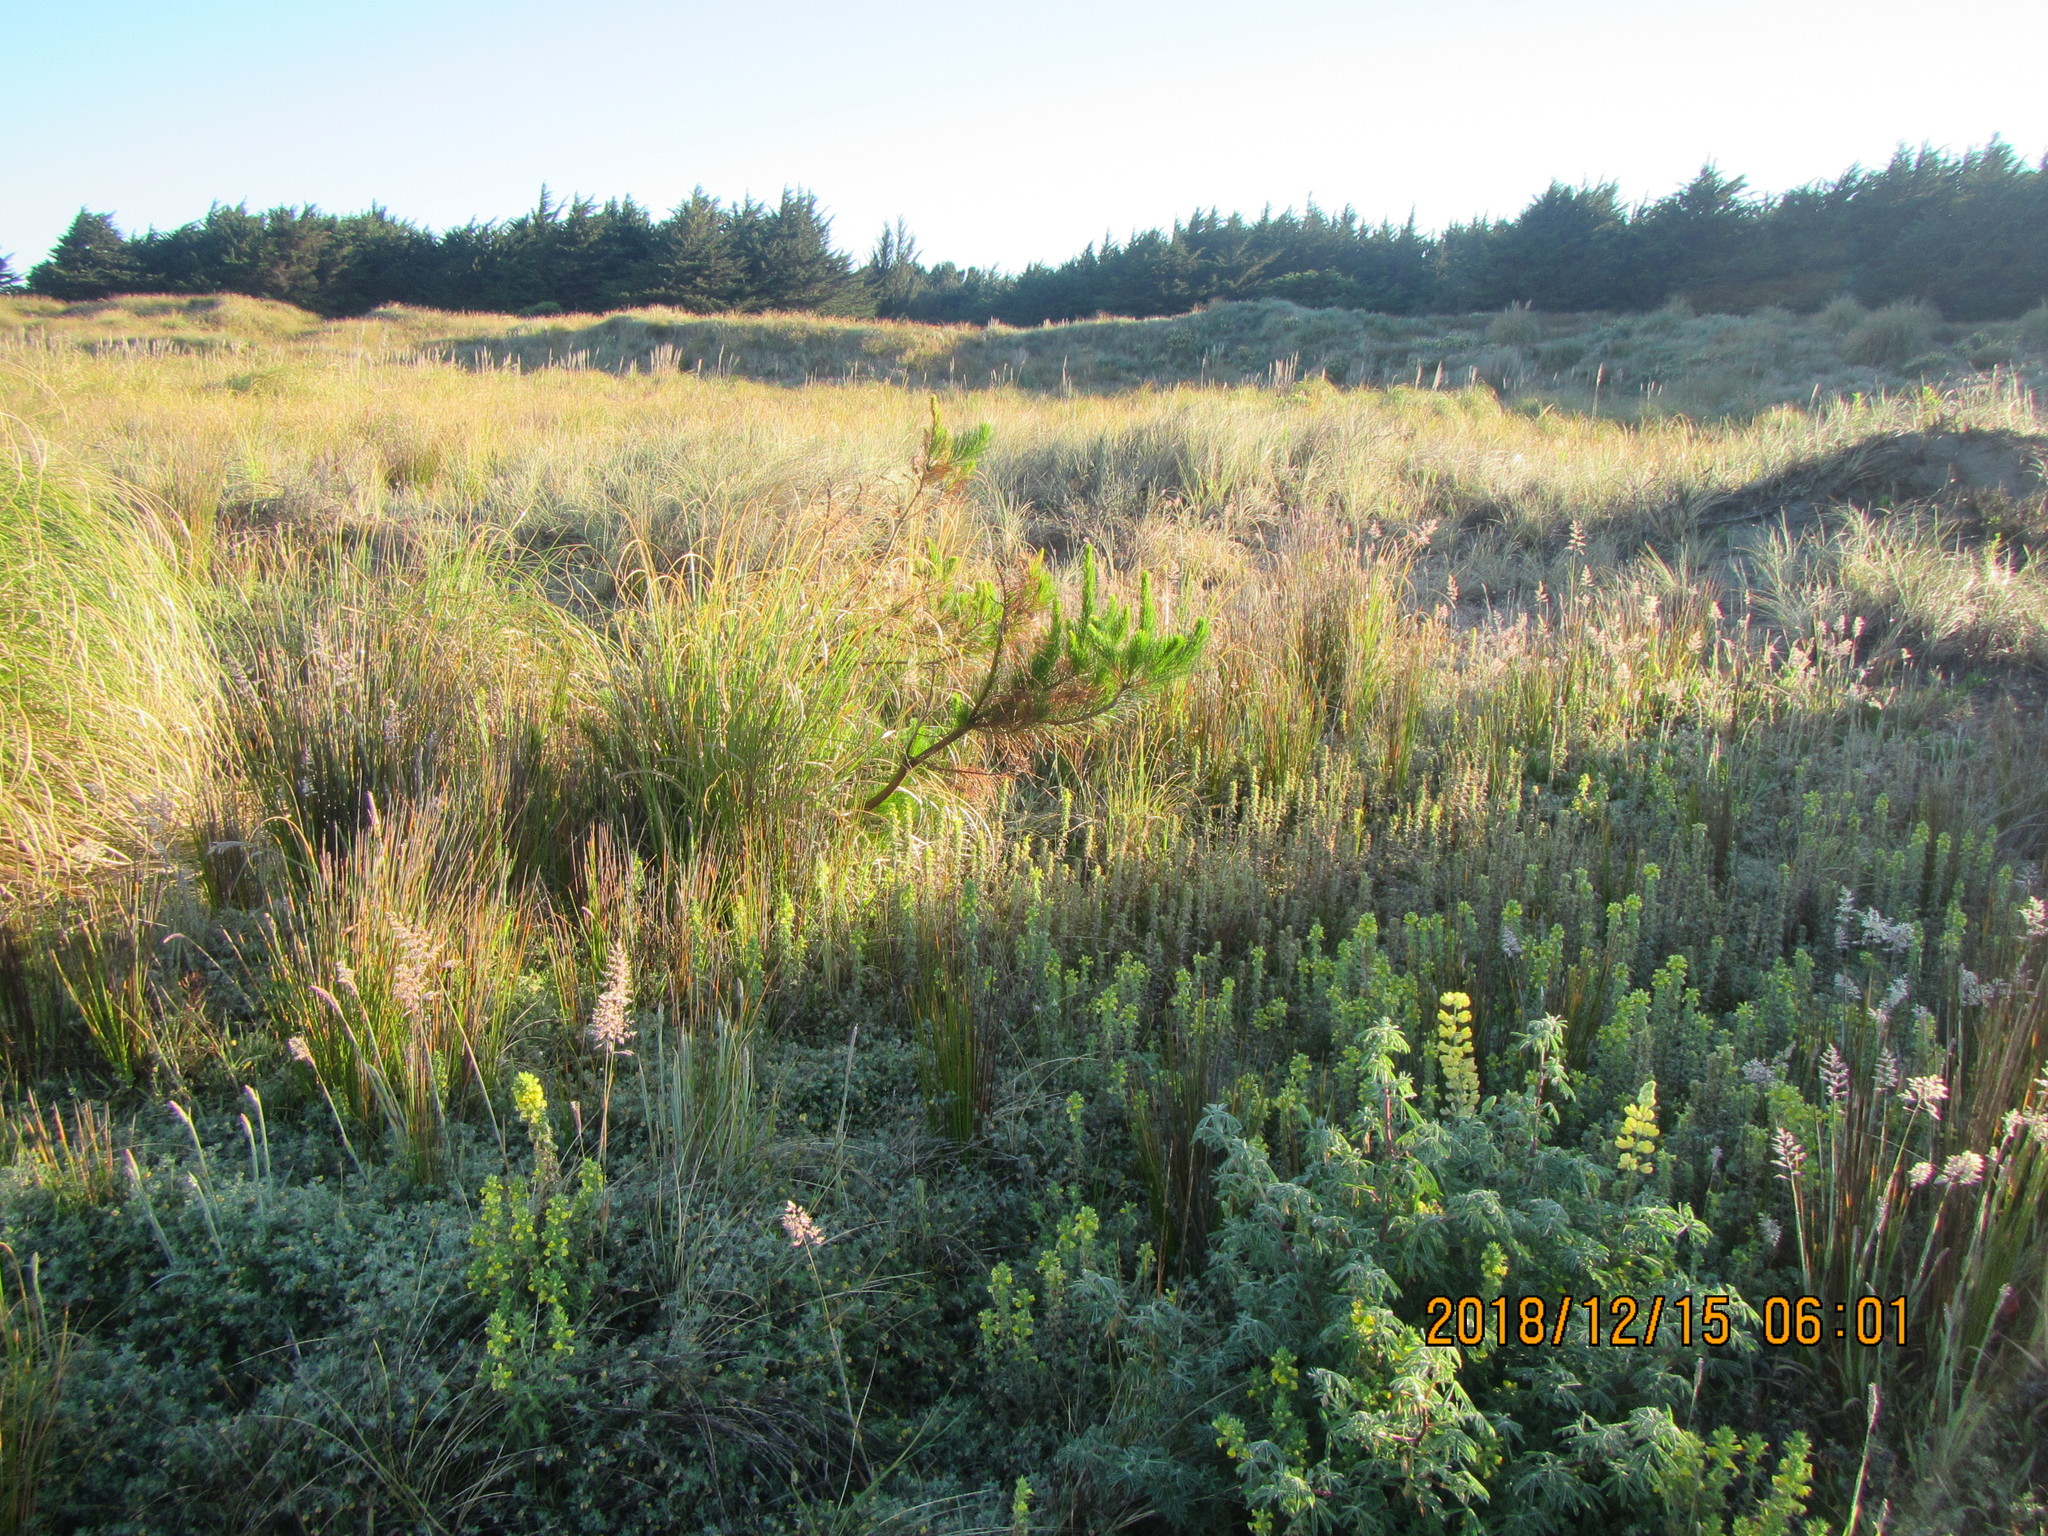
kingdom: Plantae
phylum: Tracheophyta
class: Pinopsida
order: Pinales
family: Pinaceae
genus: Pinus
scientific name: Pinus radiata
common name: Monterey pine
